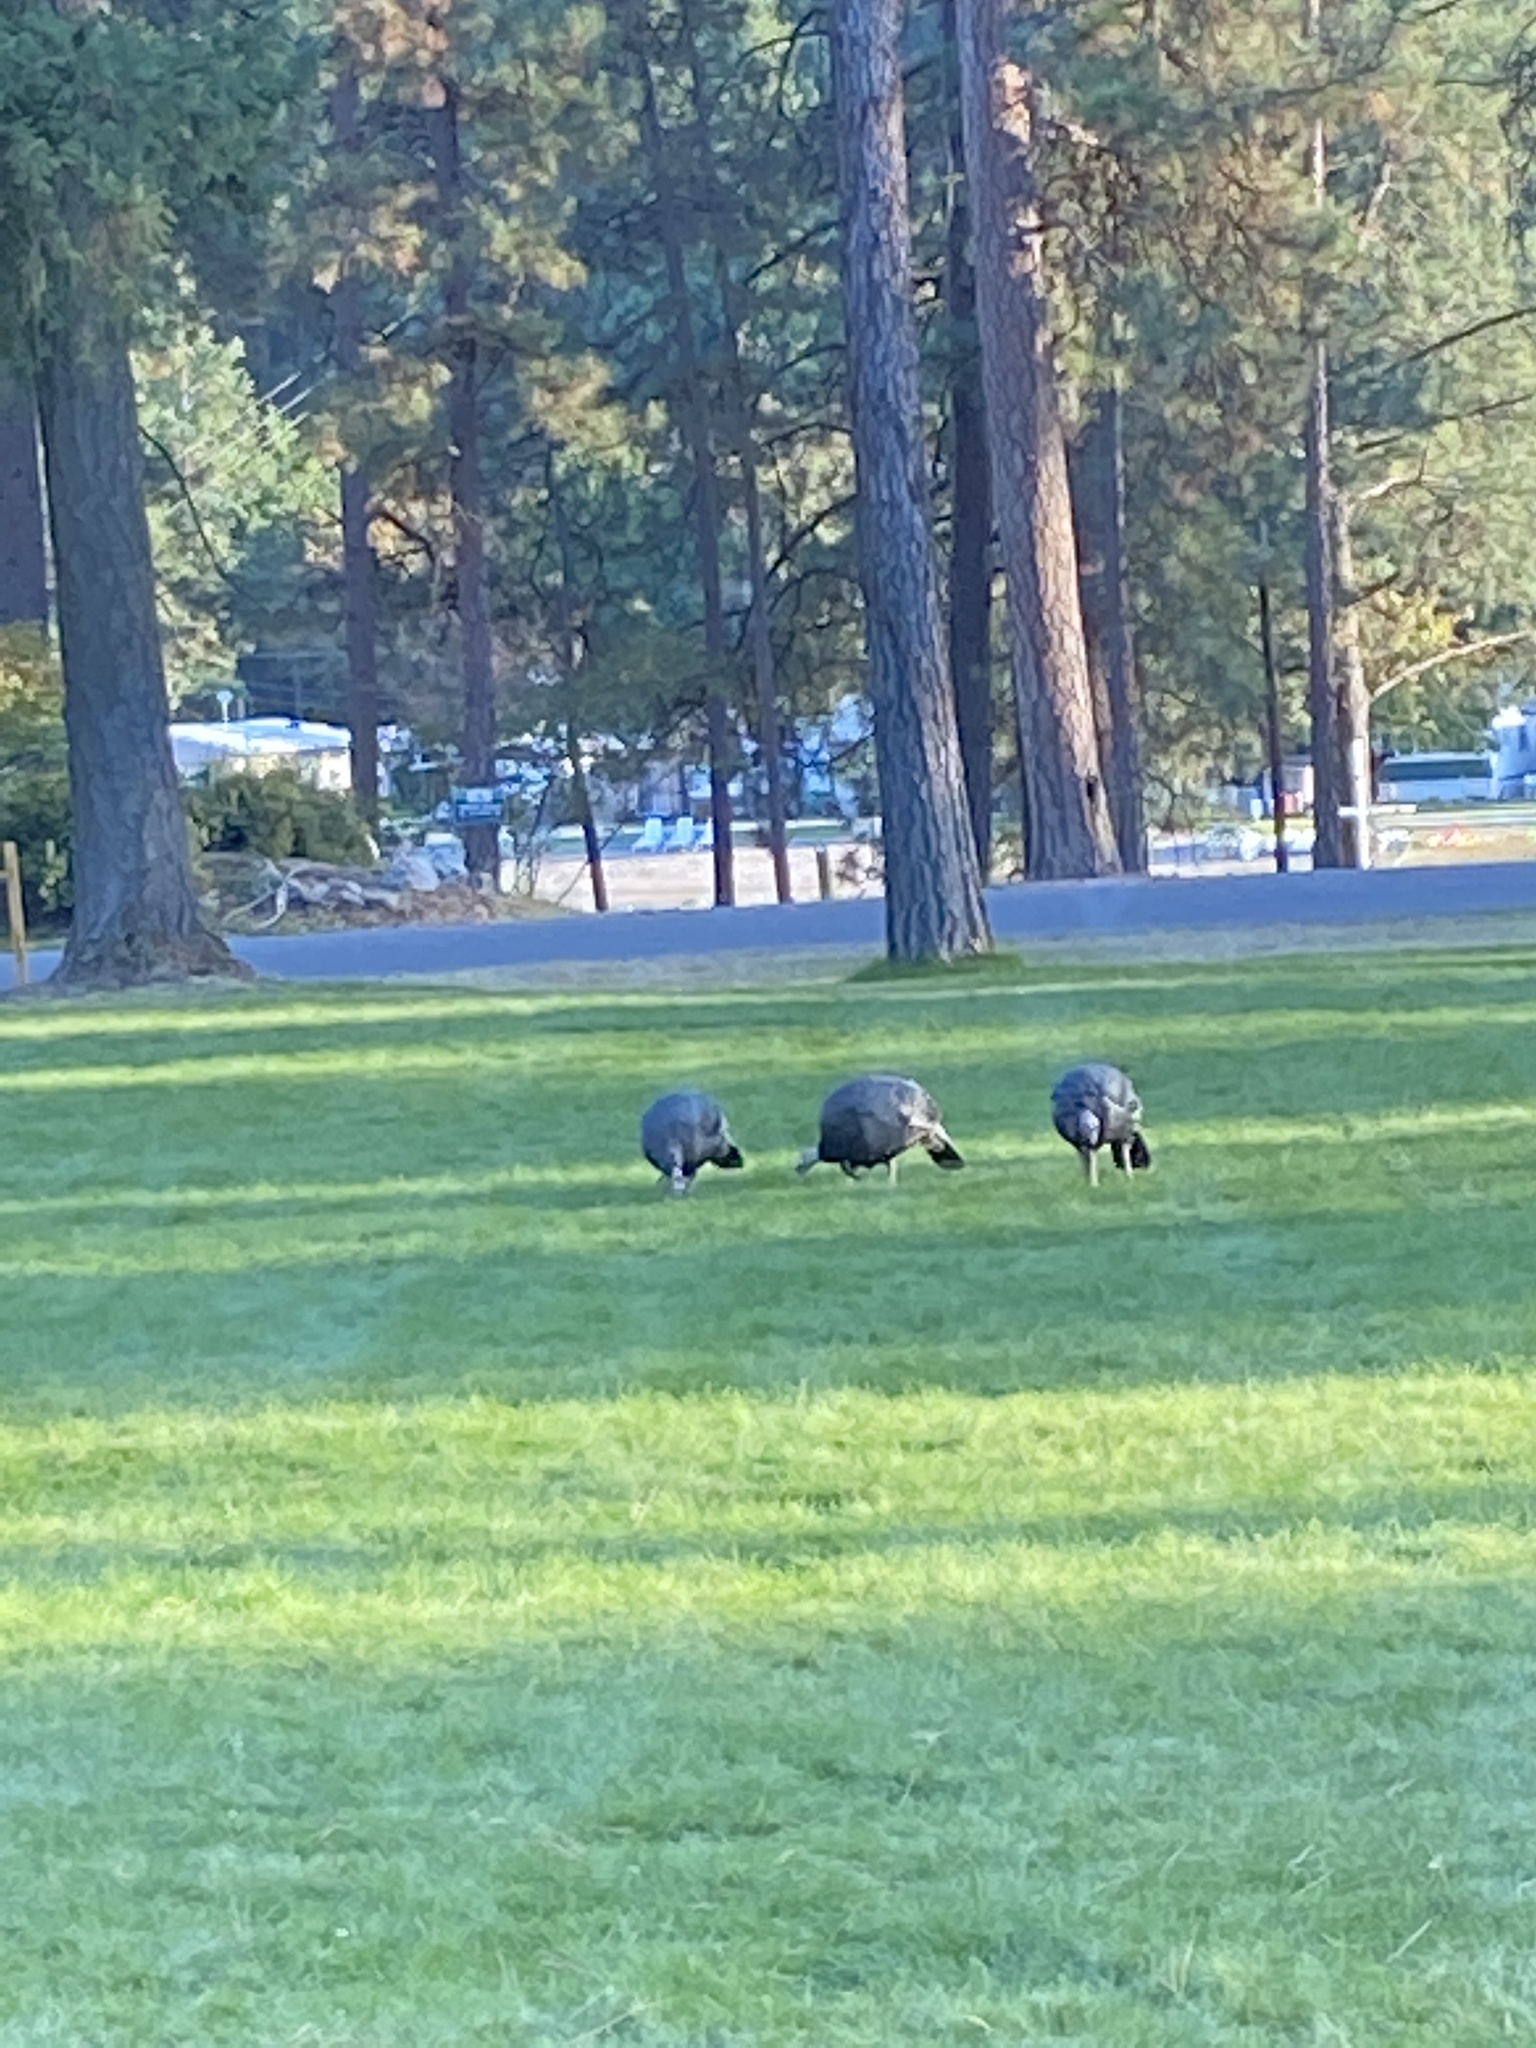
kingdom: Animalia
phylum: Chordata
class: Aves
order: Galliformes
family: Phasianidae
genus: Meleagris
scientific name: Meleagris gallopavo
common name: Wild turkey
